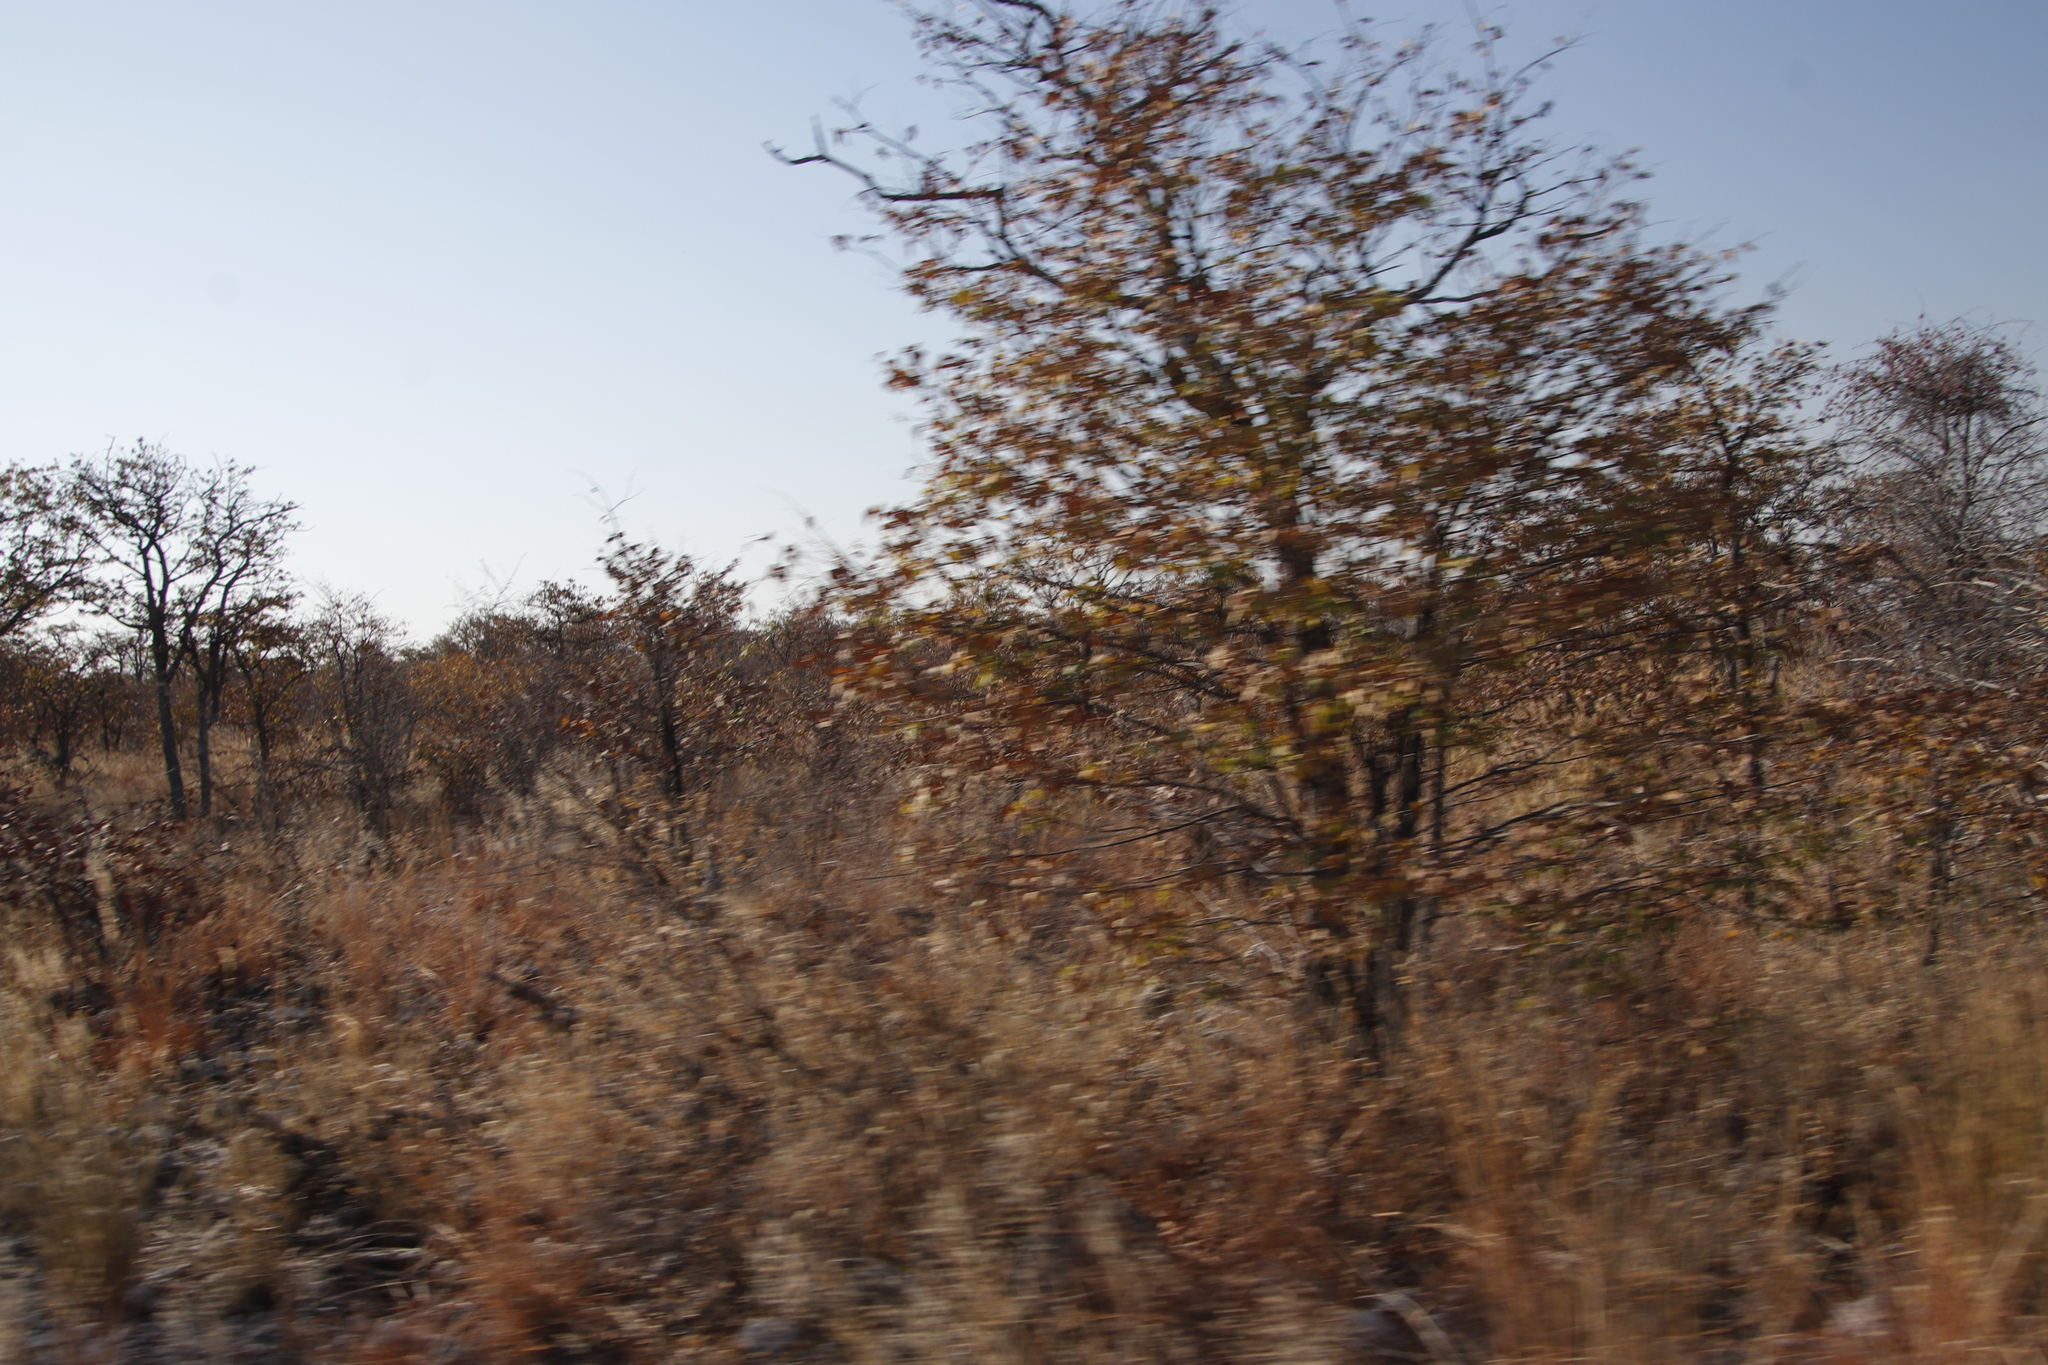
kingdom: Plantae
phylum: Tracheophyta
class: Magnoliopsida
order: Fabales
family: Fabaceae
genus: Colophospermum
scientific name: Colophospermum mopane
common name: Mopane
